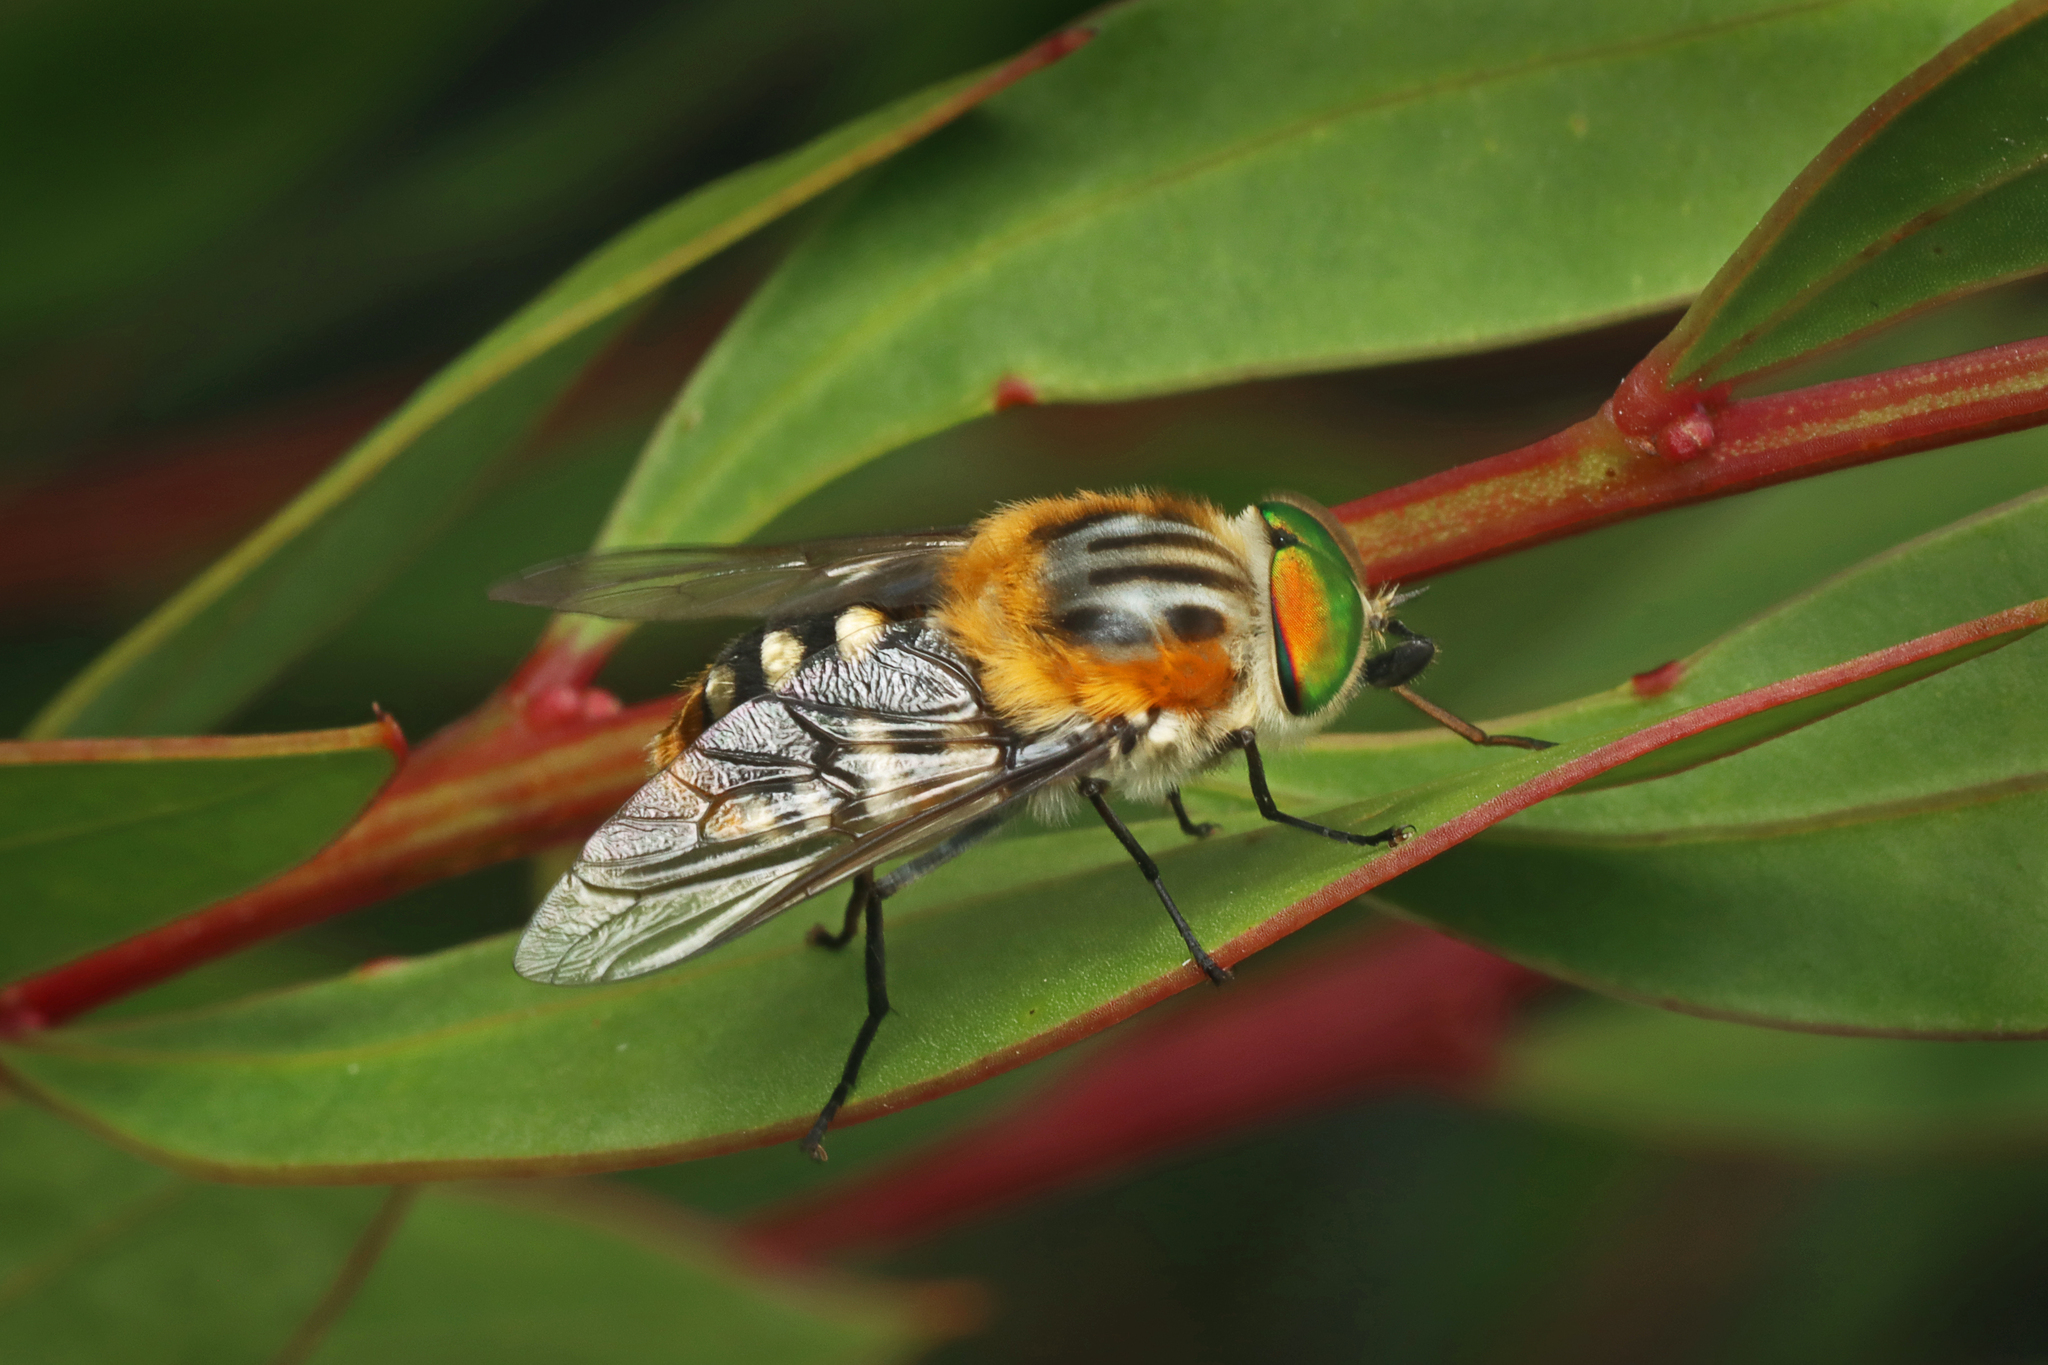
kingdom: Animalia
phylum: Arthropoda
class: Insecta
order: Diptera
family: Tabanidae
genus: Scaptia
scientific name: Scaptia auriflua
